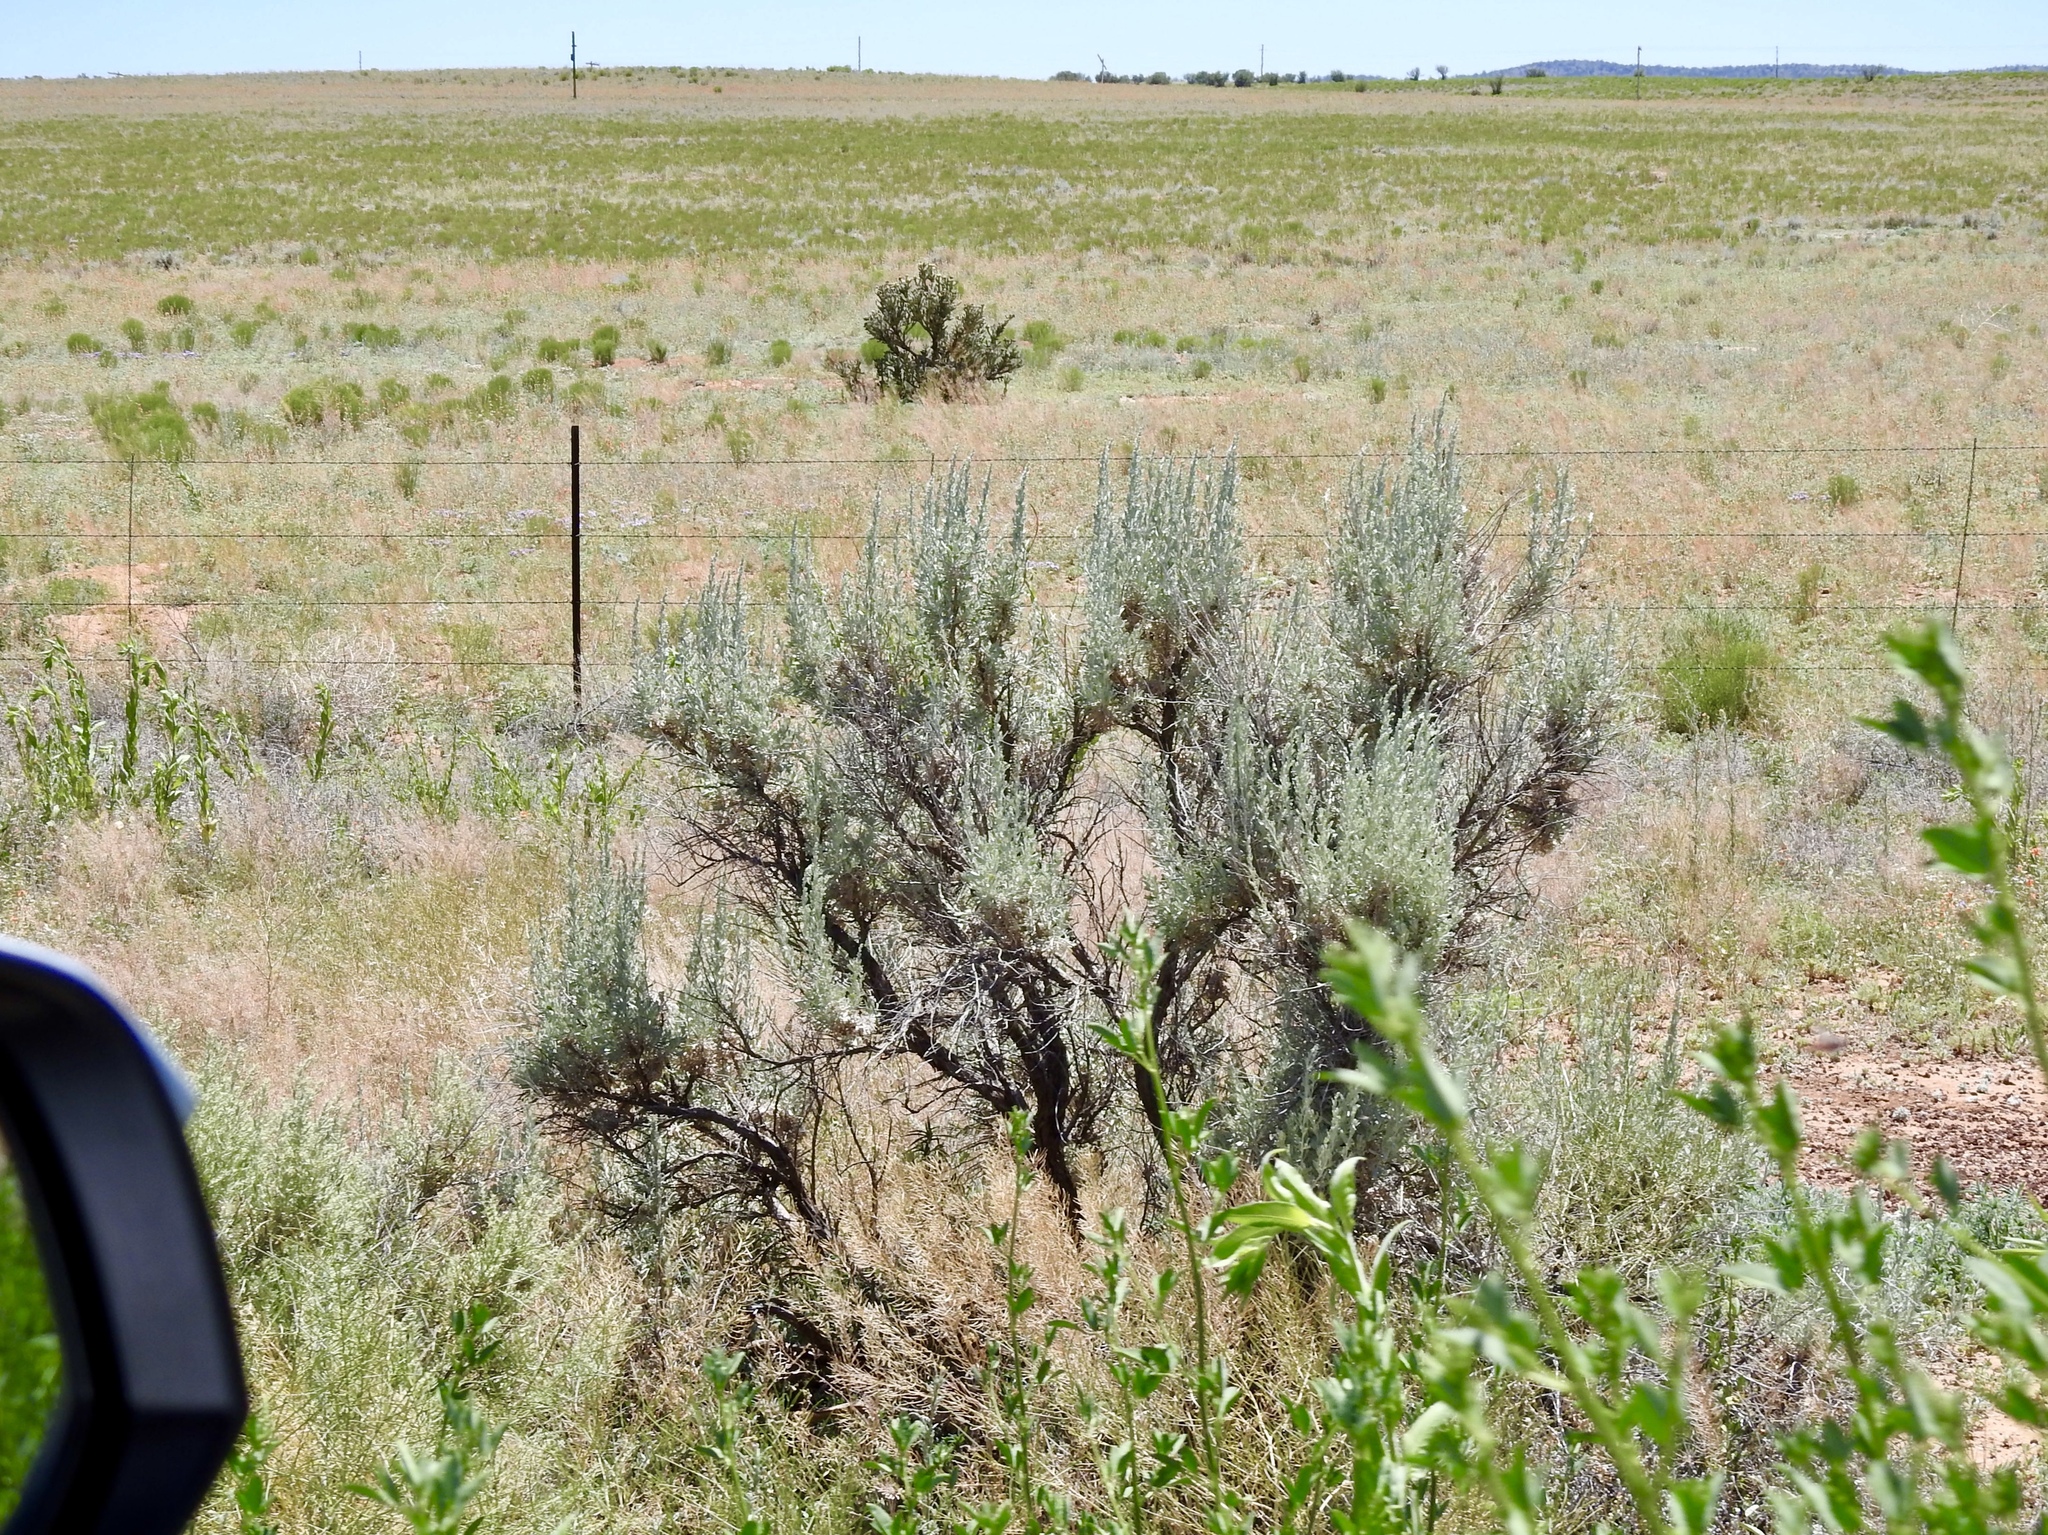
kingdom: Plantae
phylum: Tracheophyta
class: Magnoliopsida
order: Asterales
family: Asteraceae
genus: Artemisia
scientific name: Artemisia tridentata
